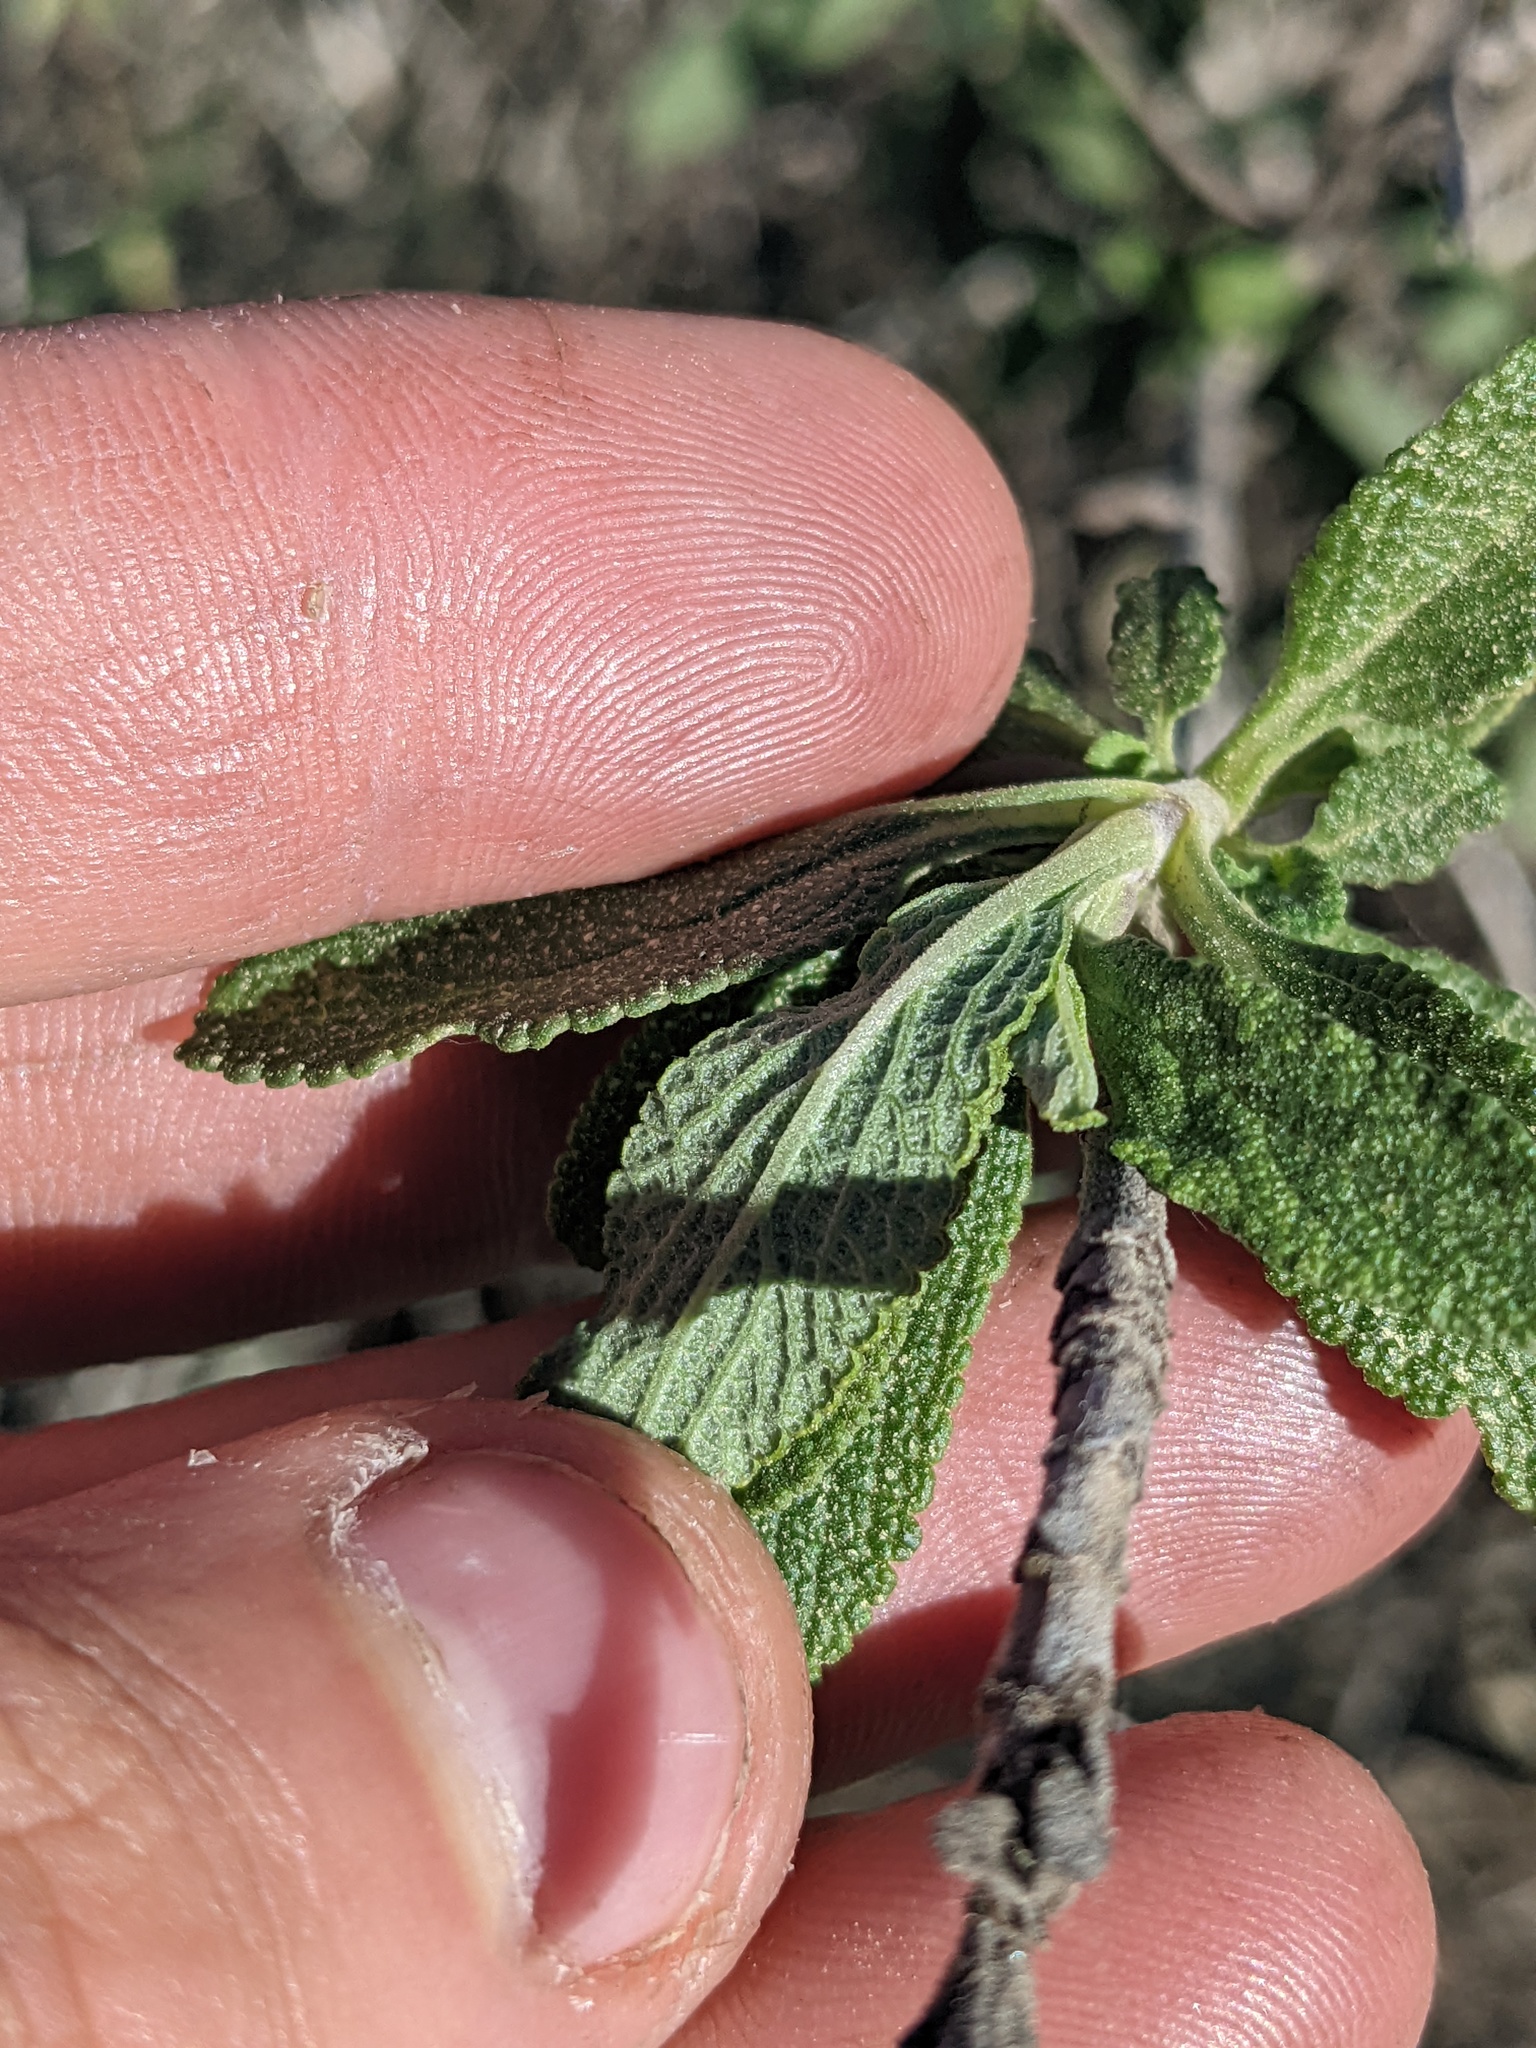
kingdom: Plantae
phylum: Tracheophyta
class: Magnoliopsida
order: Lamiales
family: Lamiaceae
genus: Salvia
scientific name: Salvia mellifera
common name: Black sage
